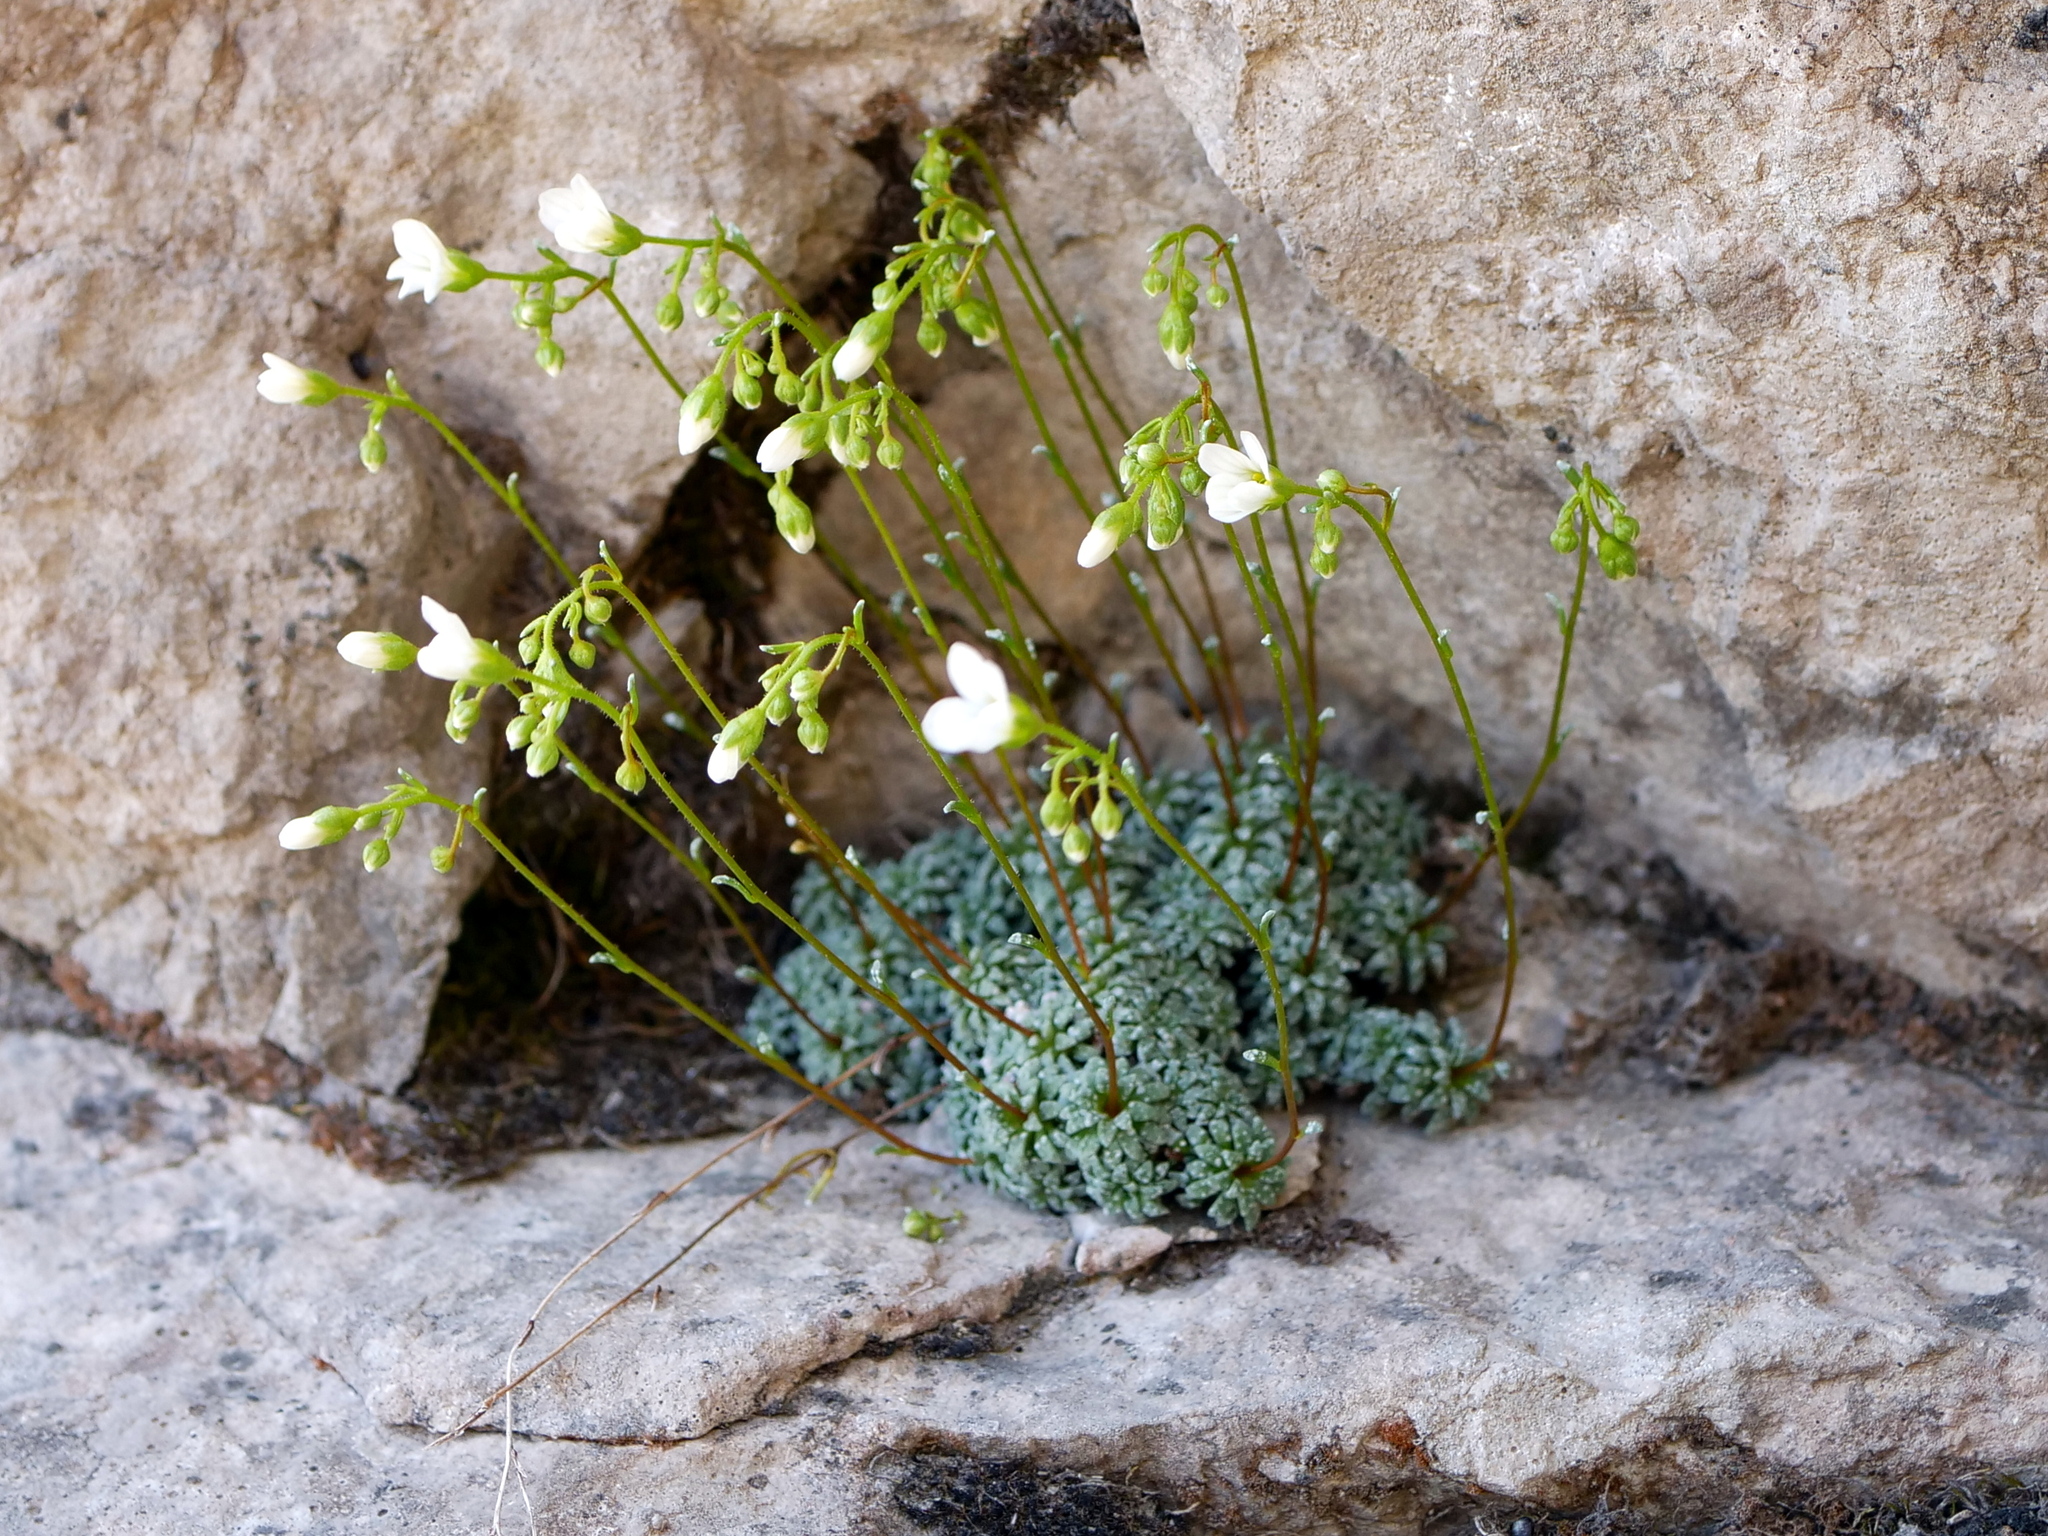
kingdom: Plantae
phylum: Tracheophyta
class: Magnoliopsida
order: Saxifragales
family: Saxifragaceae
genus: Saxifraga
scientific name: Saxifraga caesia
